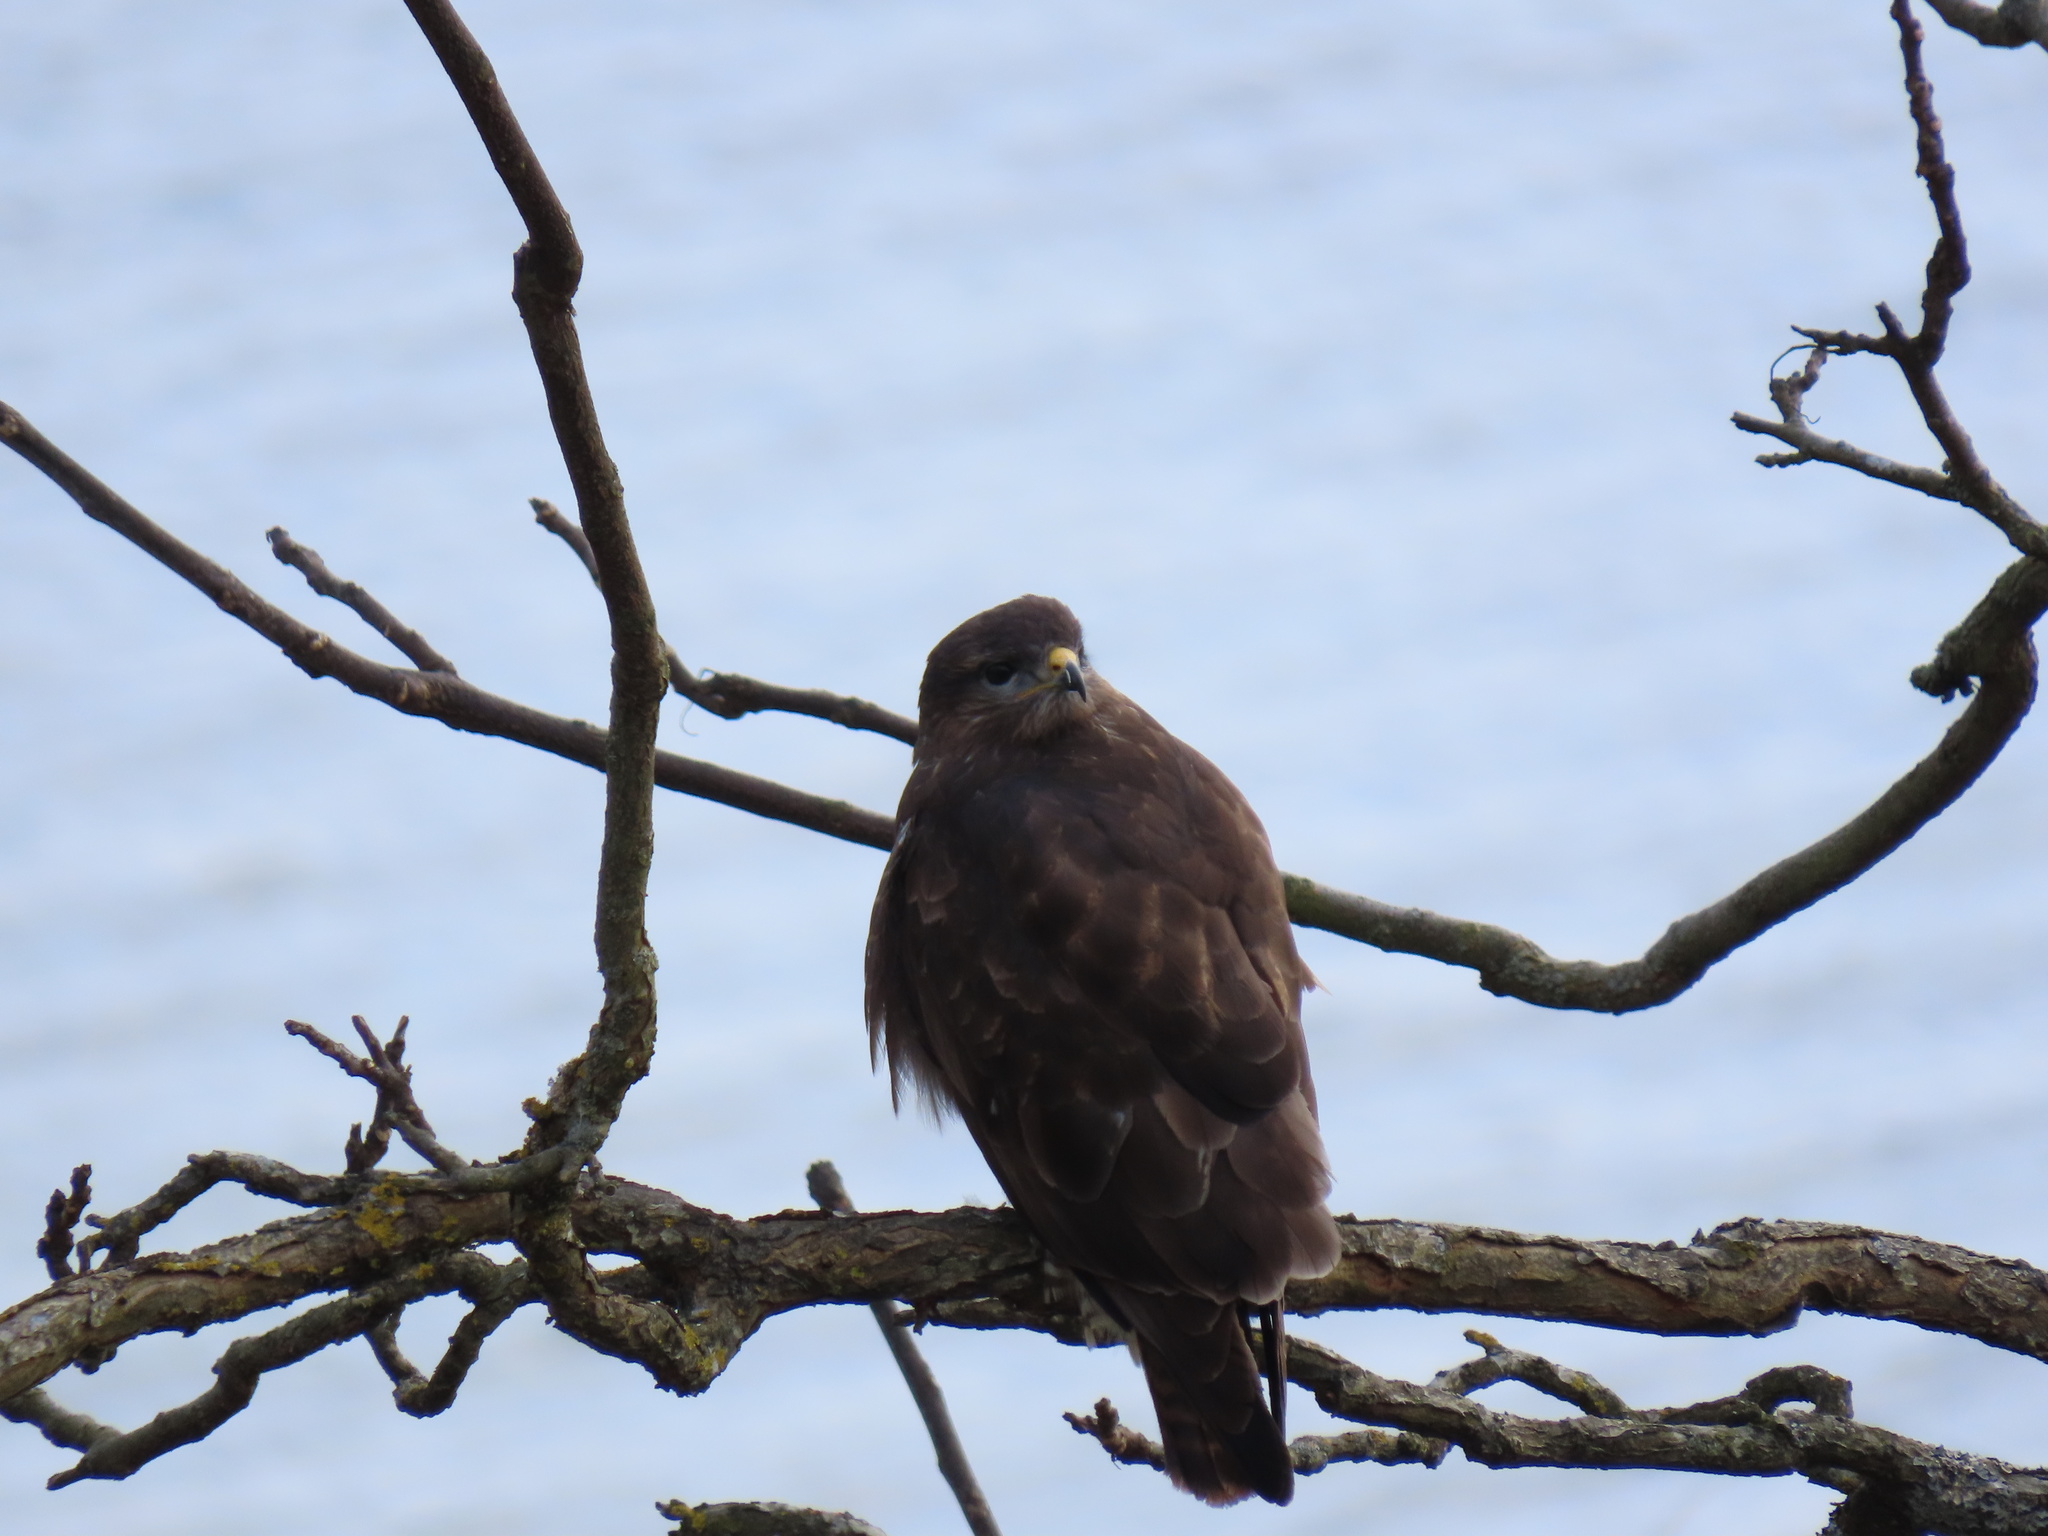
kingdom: Animalia
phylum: Chordata
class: Aves
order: Accipitriformes
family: Accipitridae
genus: Buteo
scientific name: Buteo buteo
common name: Common buzzard
